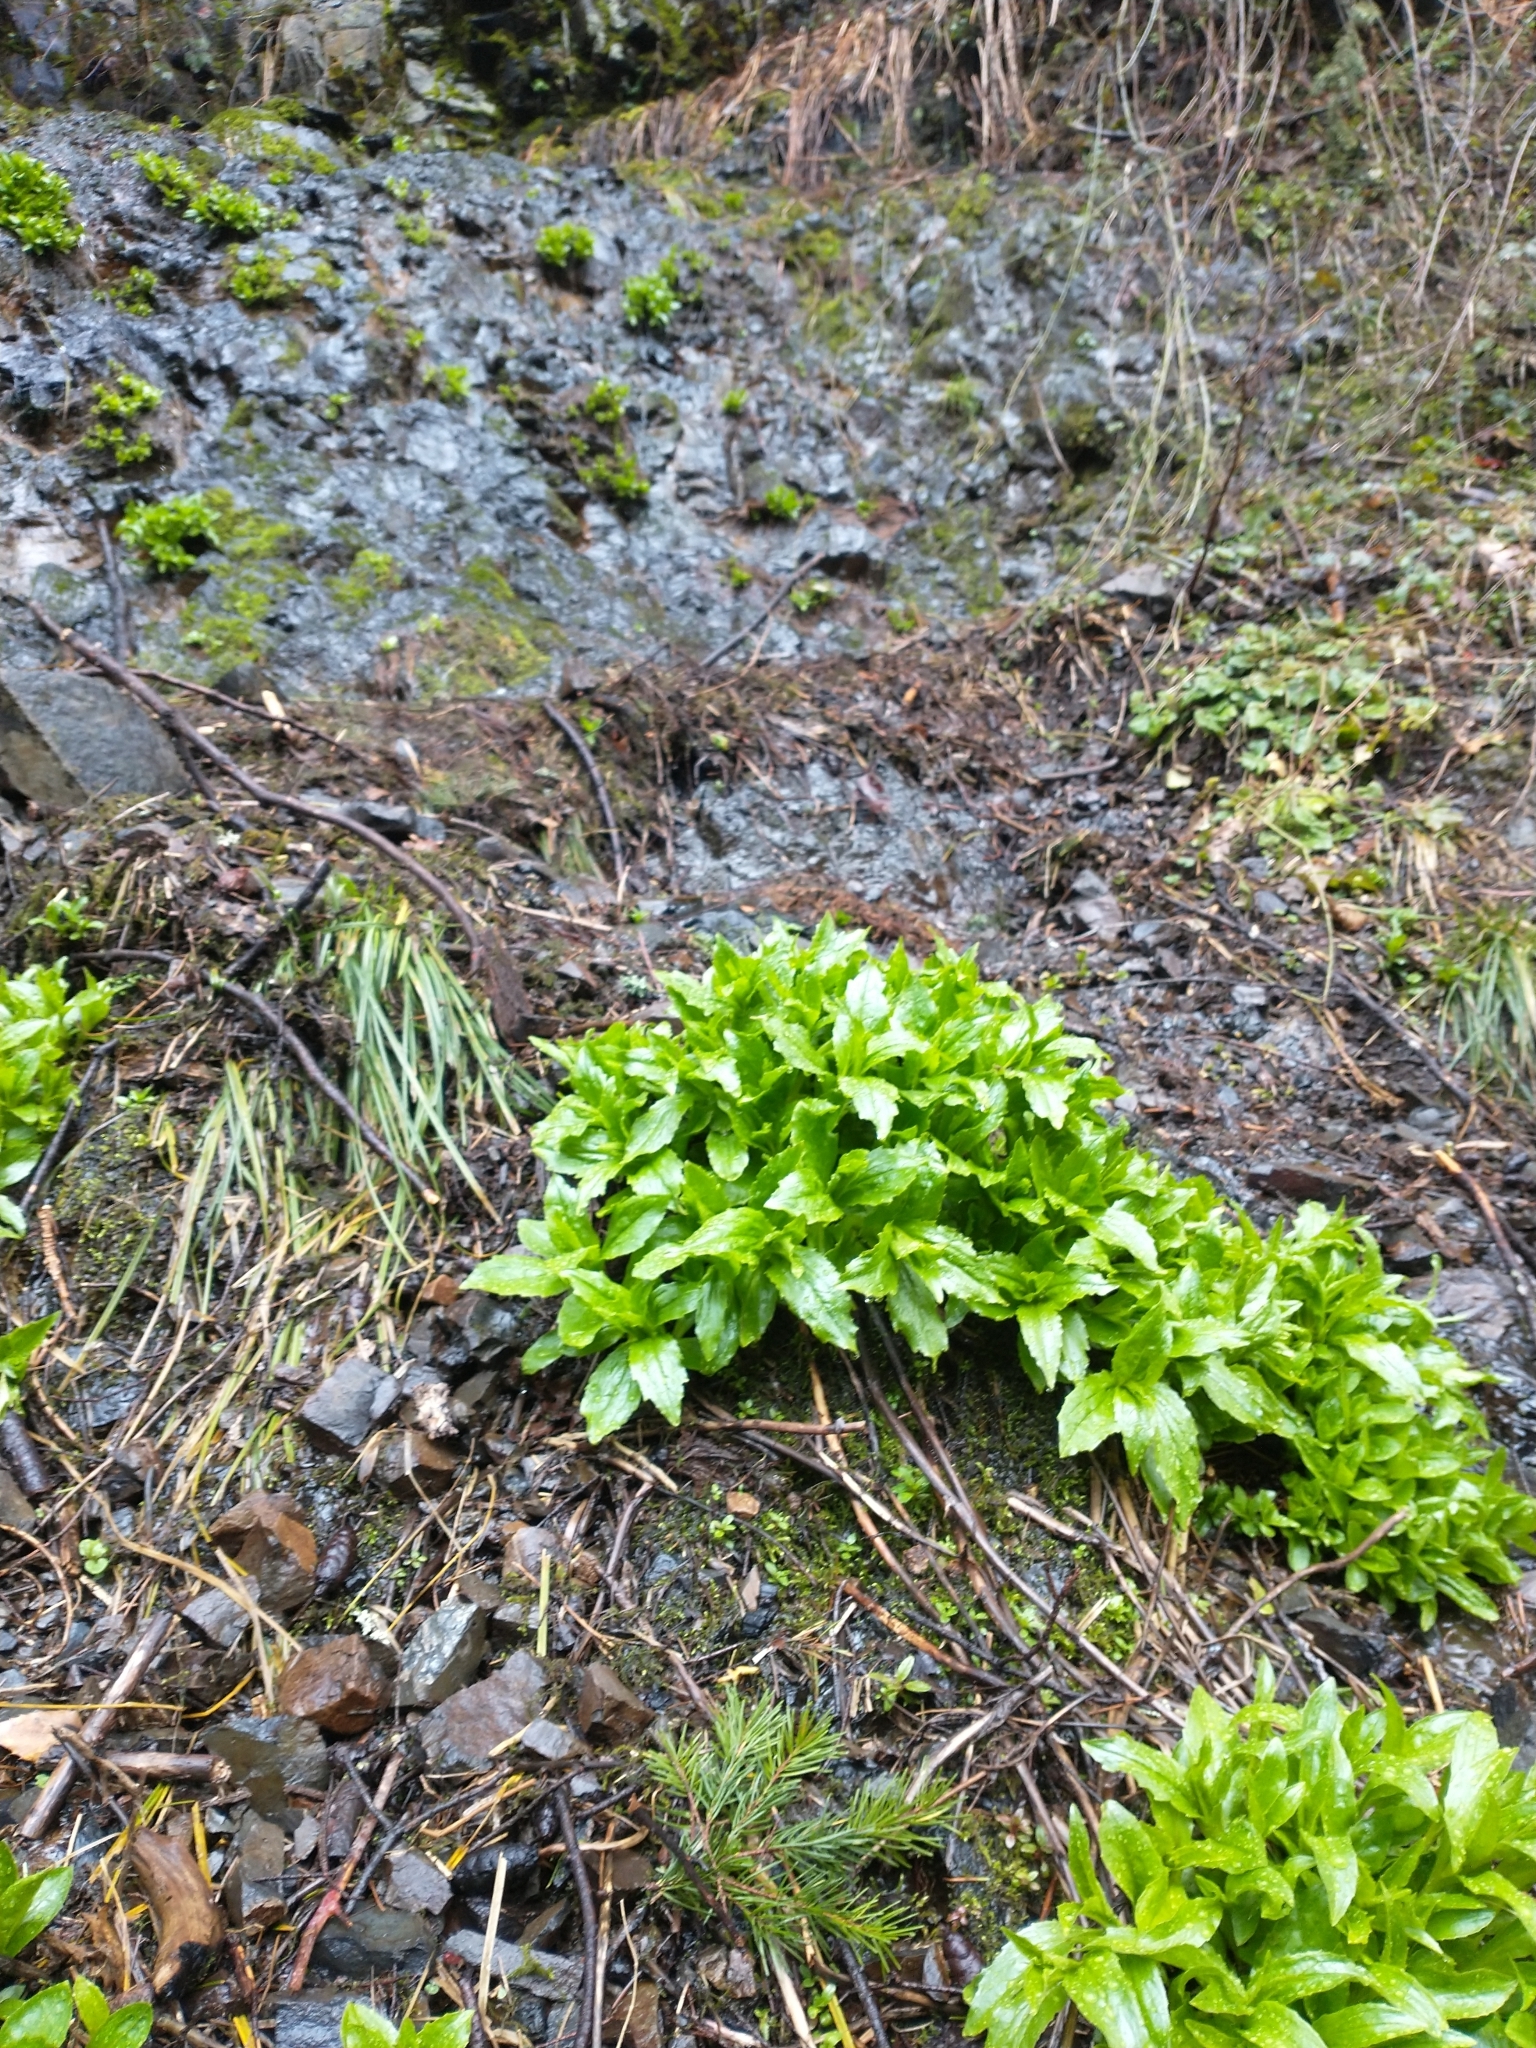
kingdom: Plantae
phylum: Tracheophyta
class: Magnoliopsida
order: Asterales
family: Asteraceae
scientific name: Asteraceae
